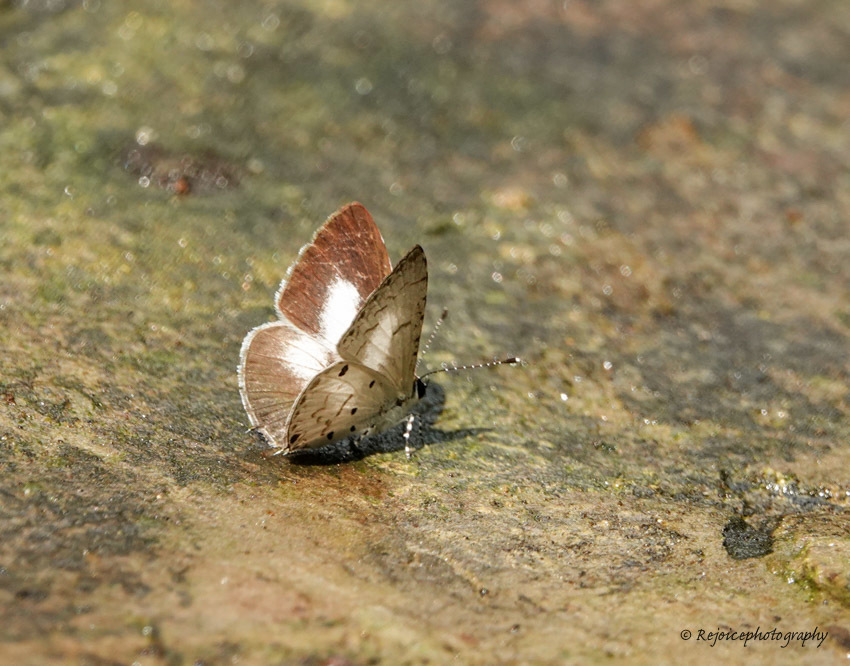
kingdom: Animalia
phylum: Arthropoda
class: Insecta
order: Lepidoptera
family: Lycaenidae
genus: Megisba
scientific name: Megisba malaya
